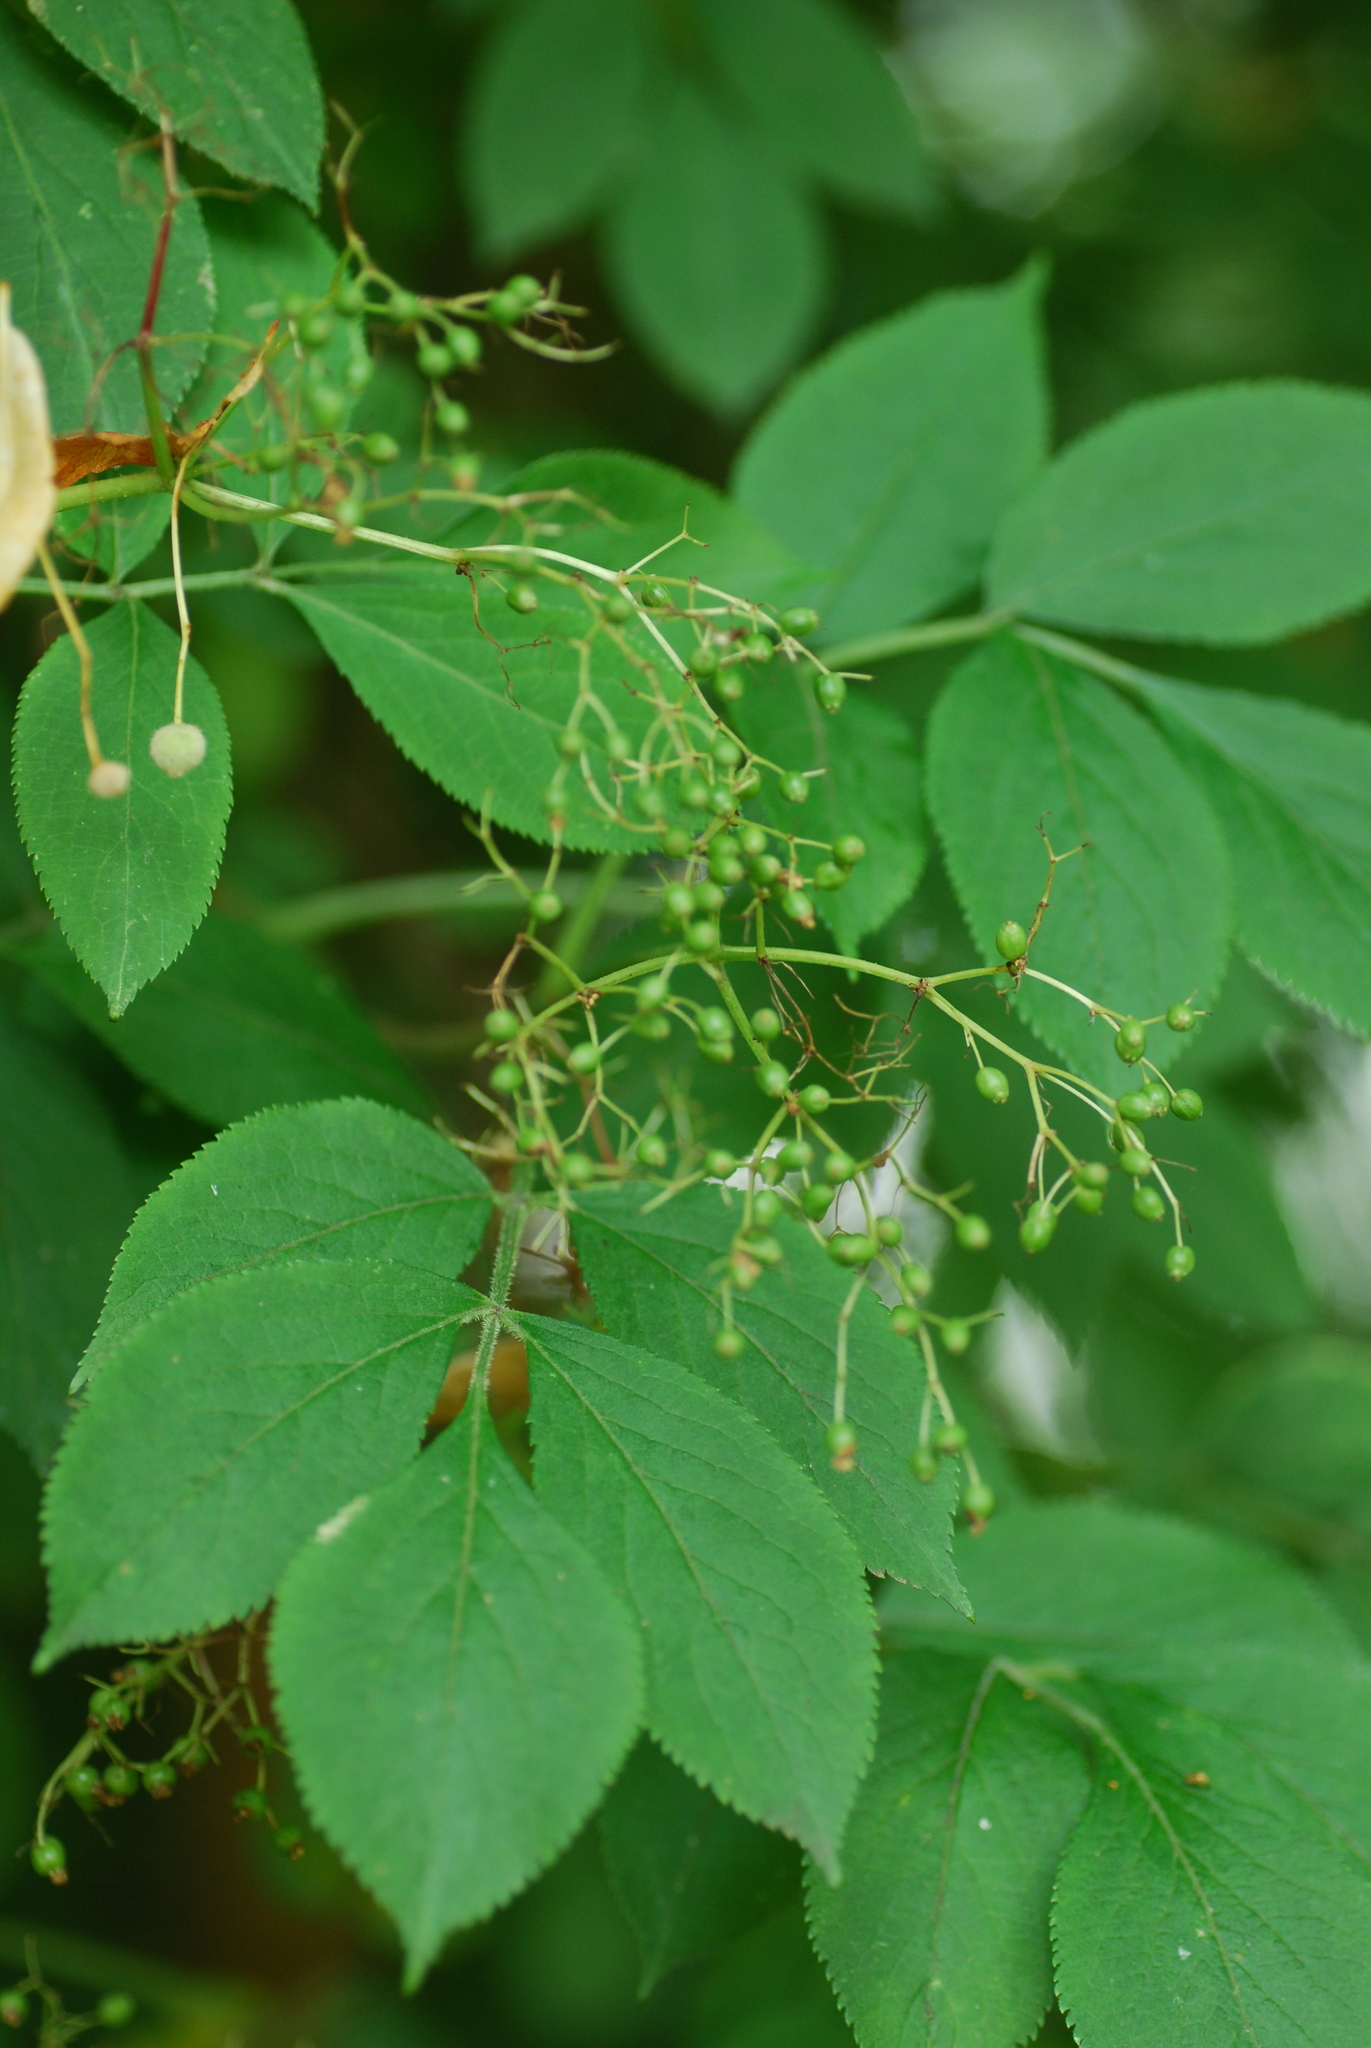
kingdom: Plantae
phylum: Tracheophyta
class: Magnoliopsida
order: Dipsacales
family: Viburnaceae
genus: Sambucus
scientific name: Sambucus nigra
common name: Elder
